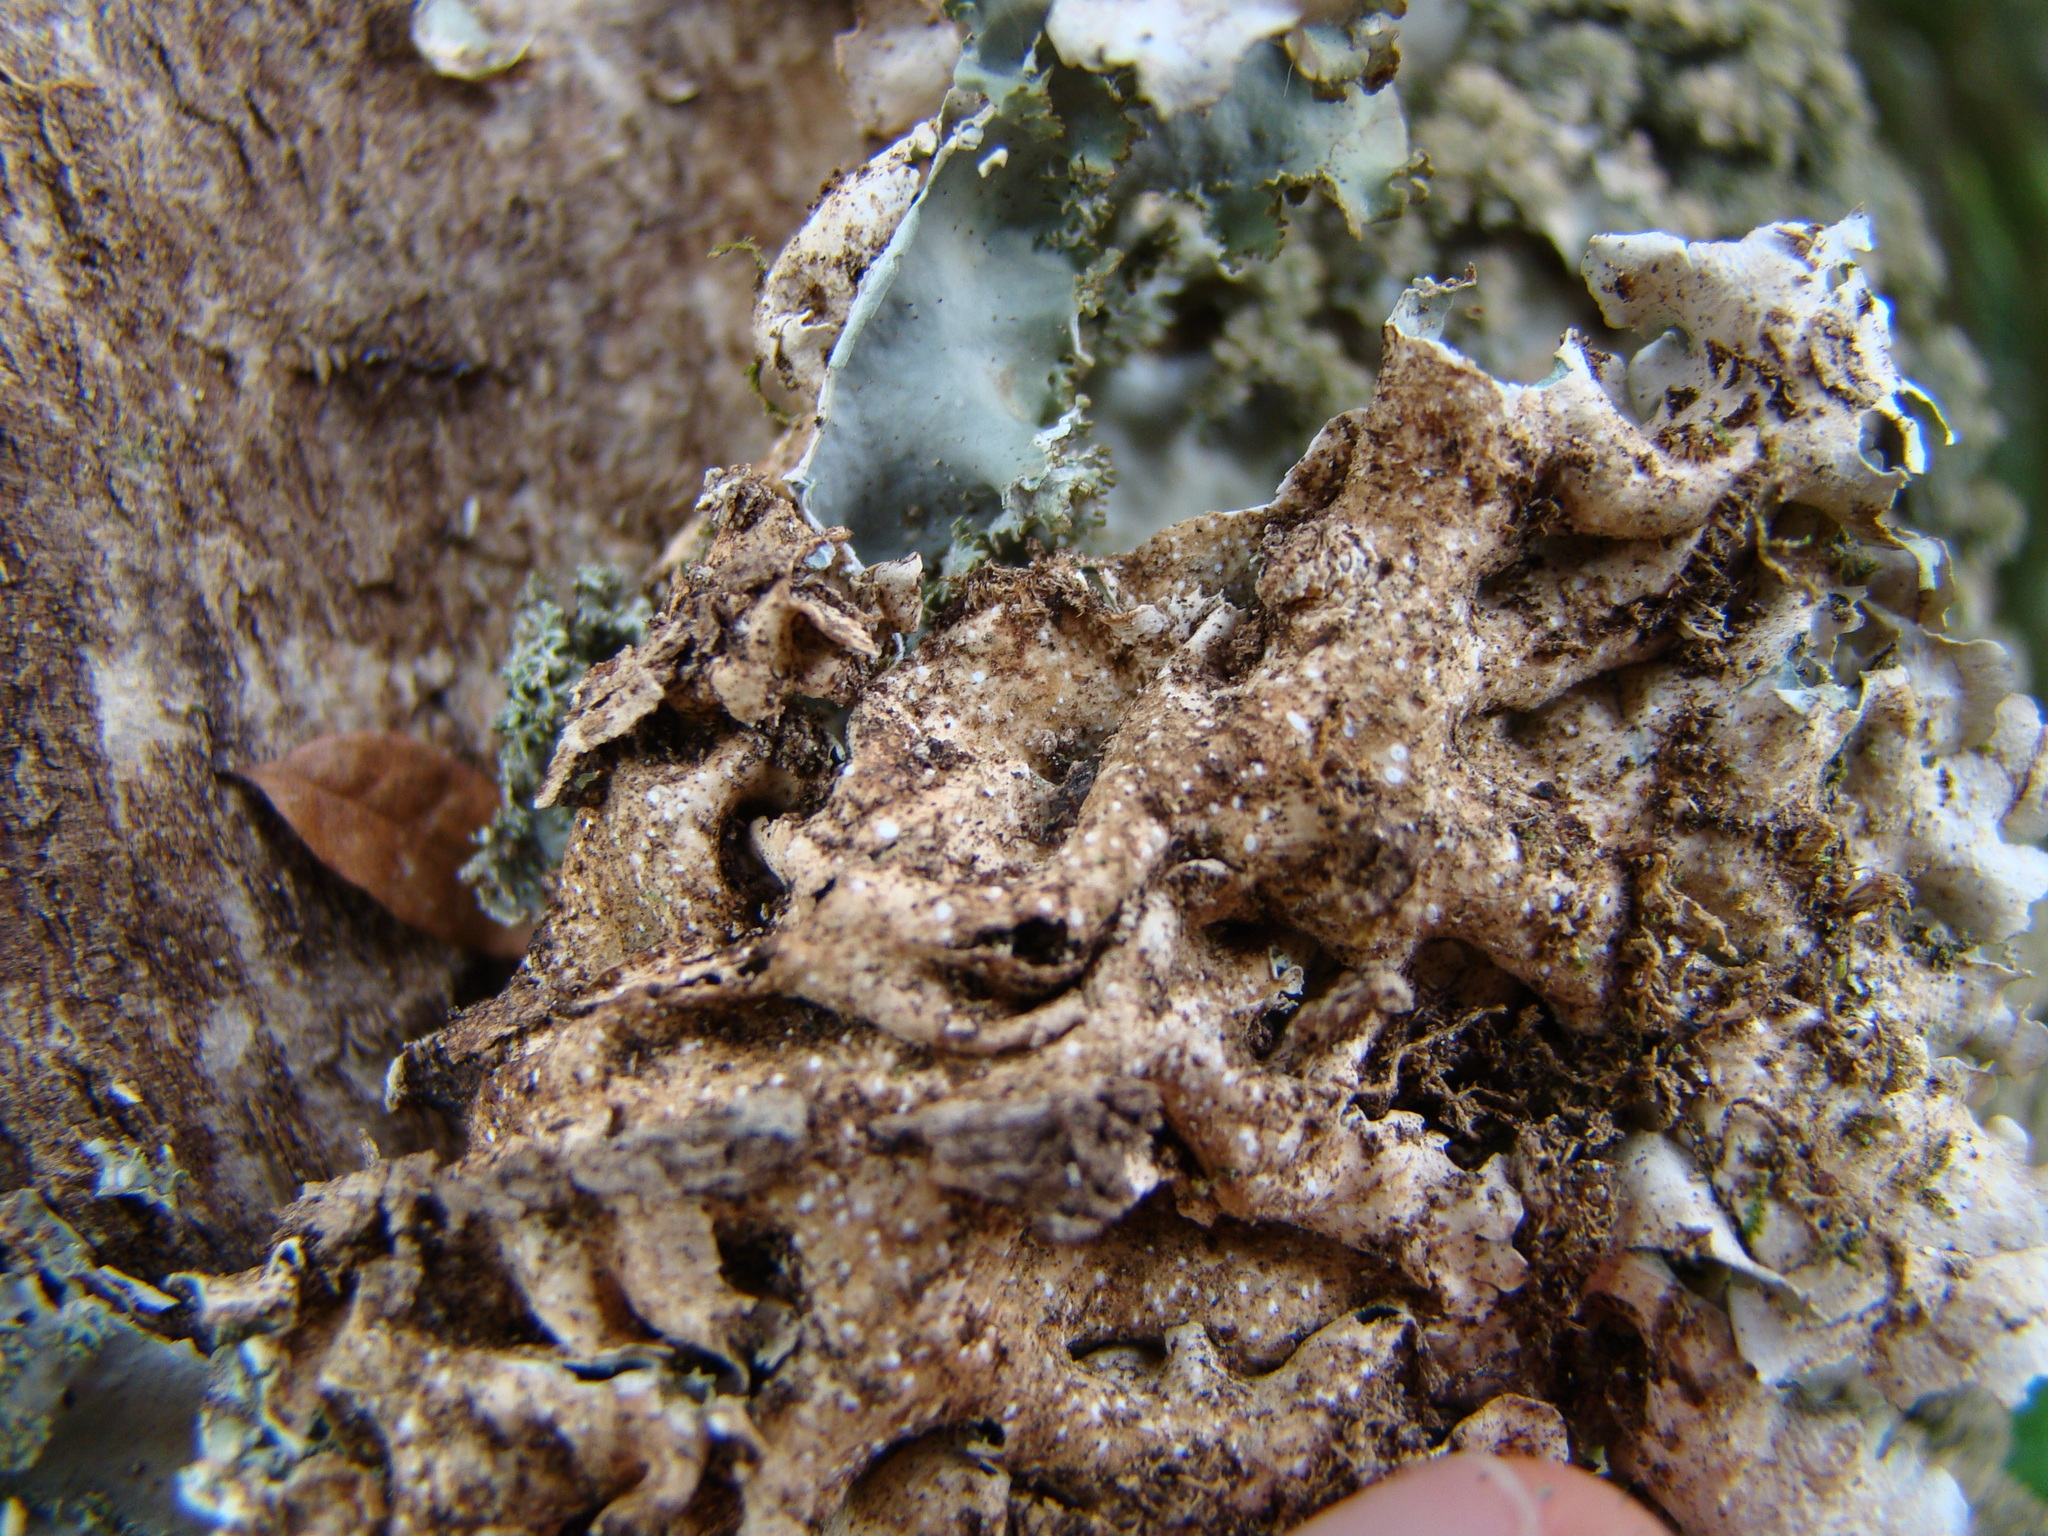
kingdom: Fungi
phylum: Ascomycota
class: Lecanoromycetes
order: Peltigerales
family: Lobariaceae
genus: Pseudocyphellaria
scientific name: Pseudocyphellaria multifida
